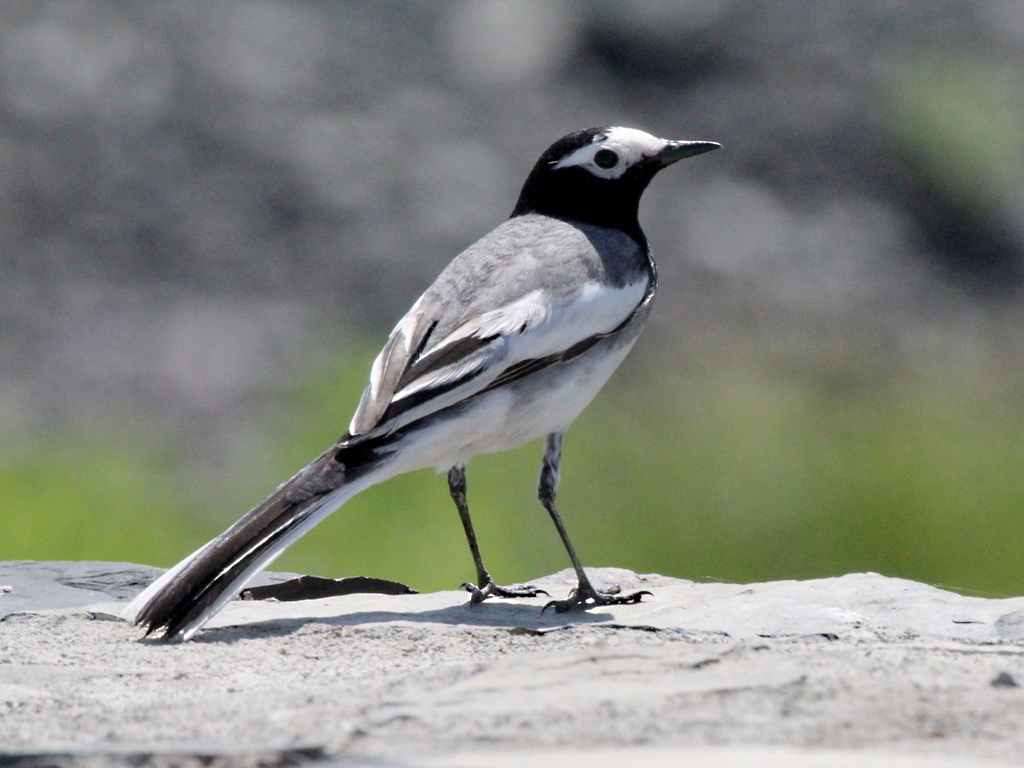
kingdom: Animalia
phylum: Chordata
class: Aves
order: Passeriformes
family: Motacillidae
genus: Motacilla
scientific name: Motacilla alba
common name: White wagtail
